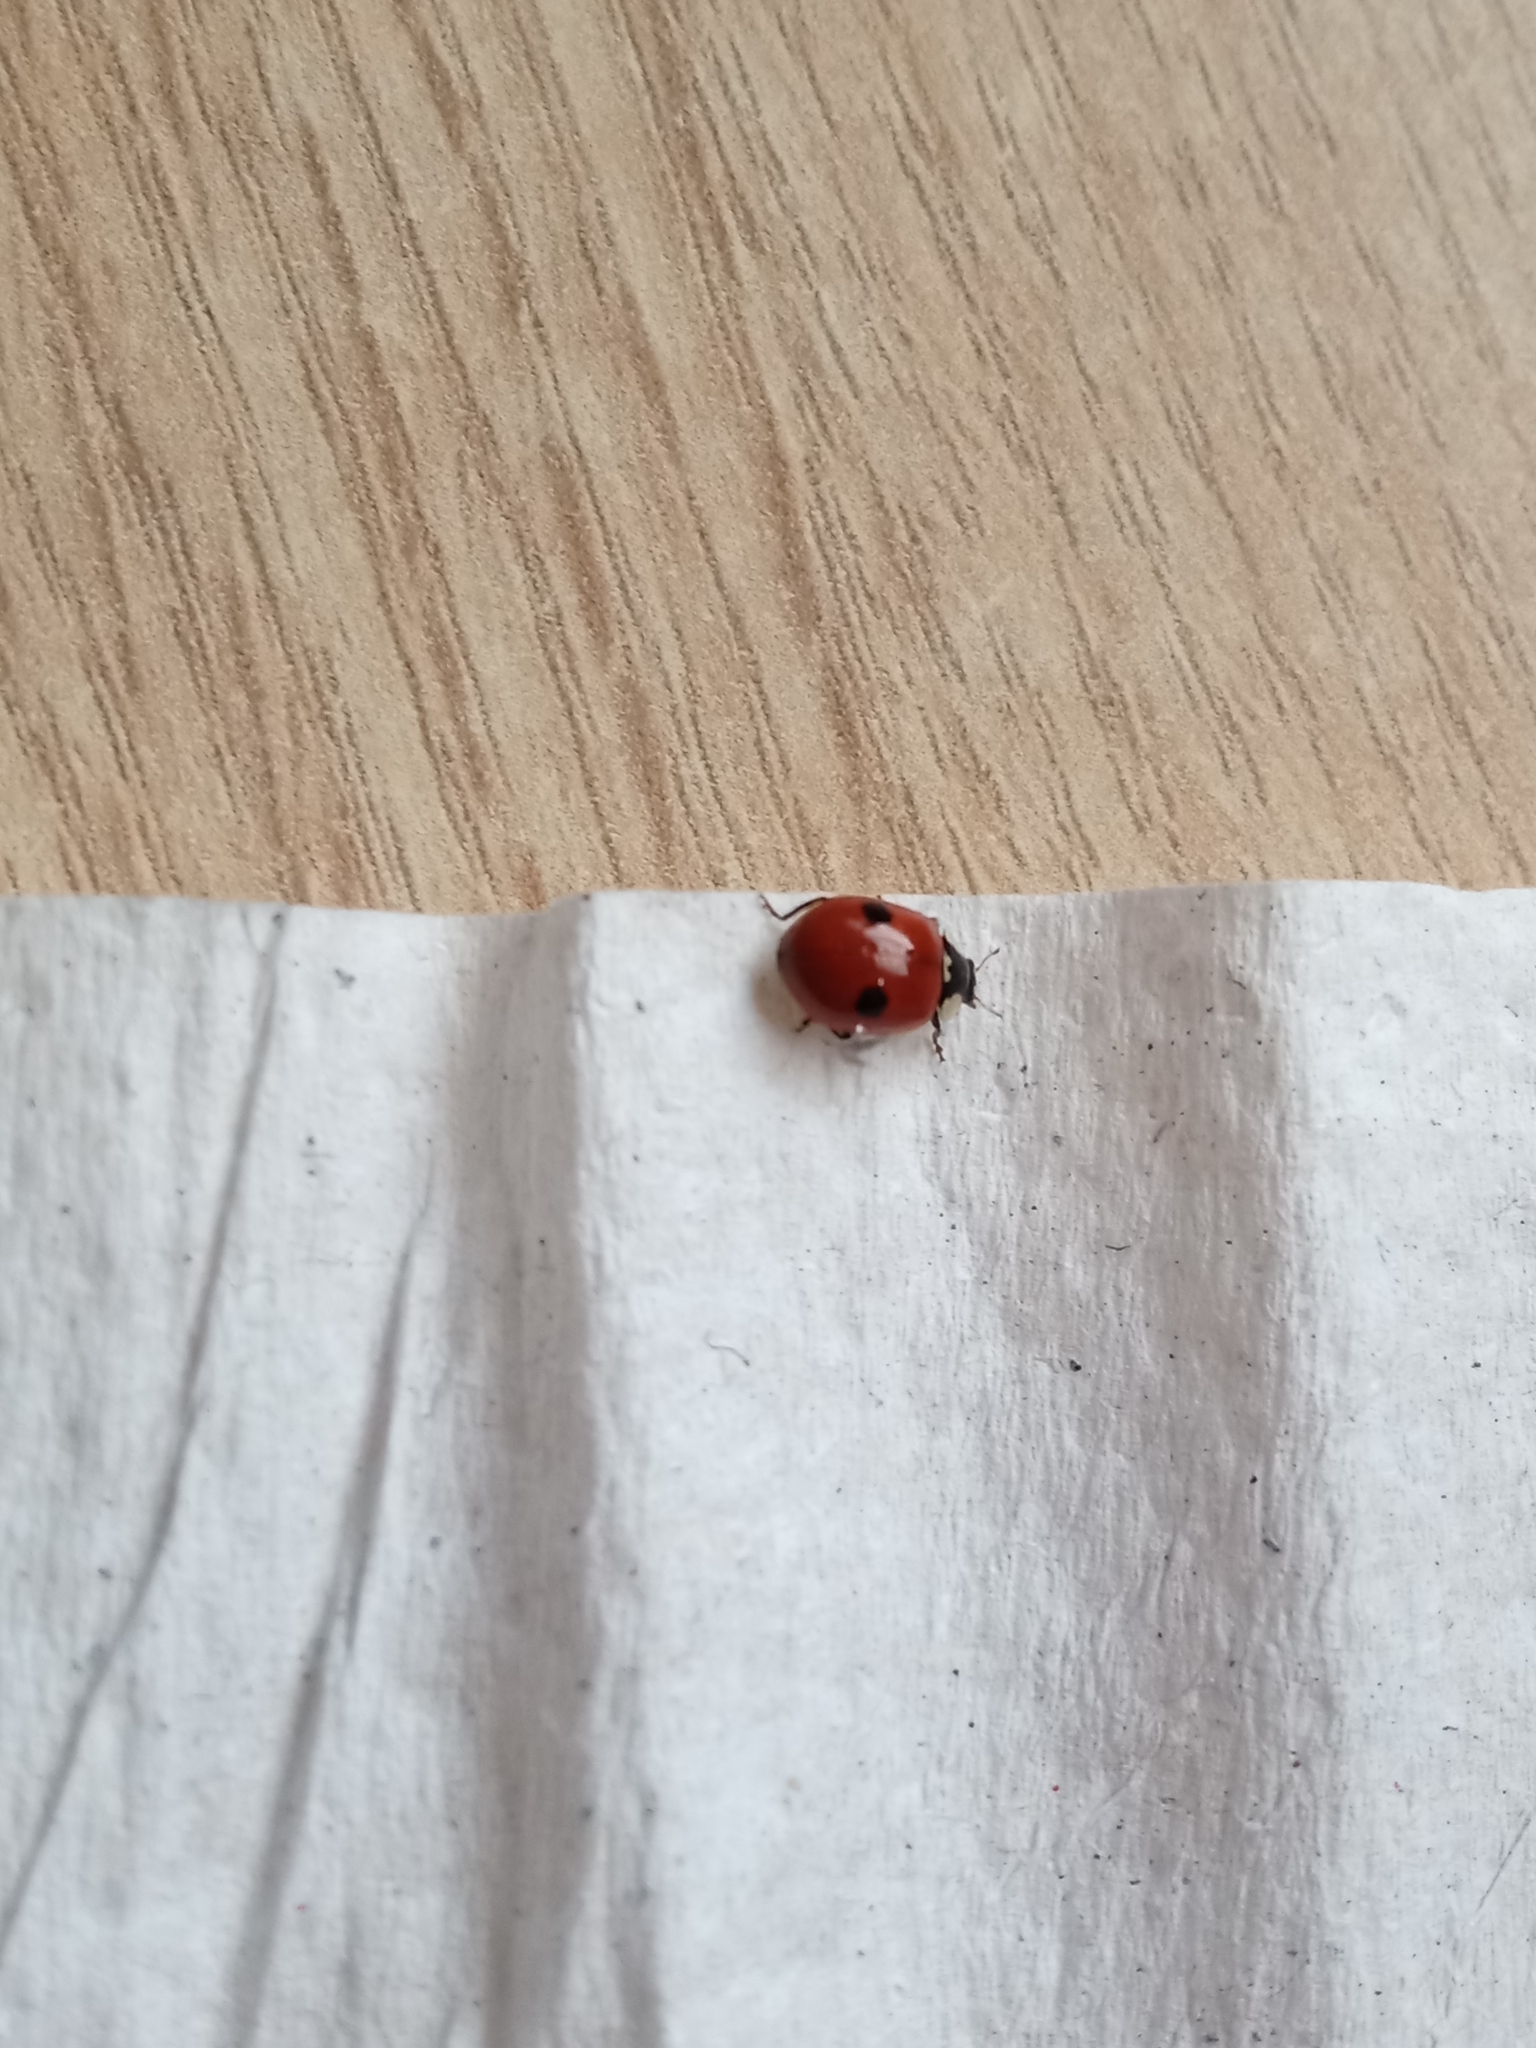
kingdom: Animalia
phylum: Arthropoda
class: Insecta
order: Coleoptera
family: Coccinellidae
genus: Adalia
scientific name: Adalia bipunctata
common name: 2-spot ladybird
